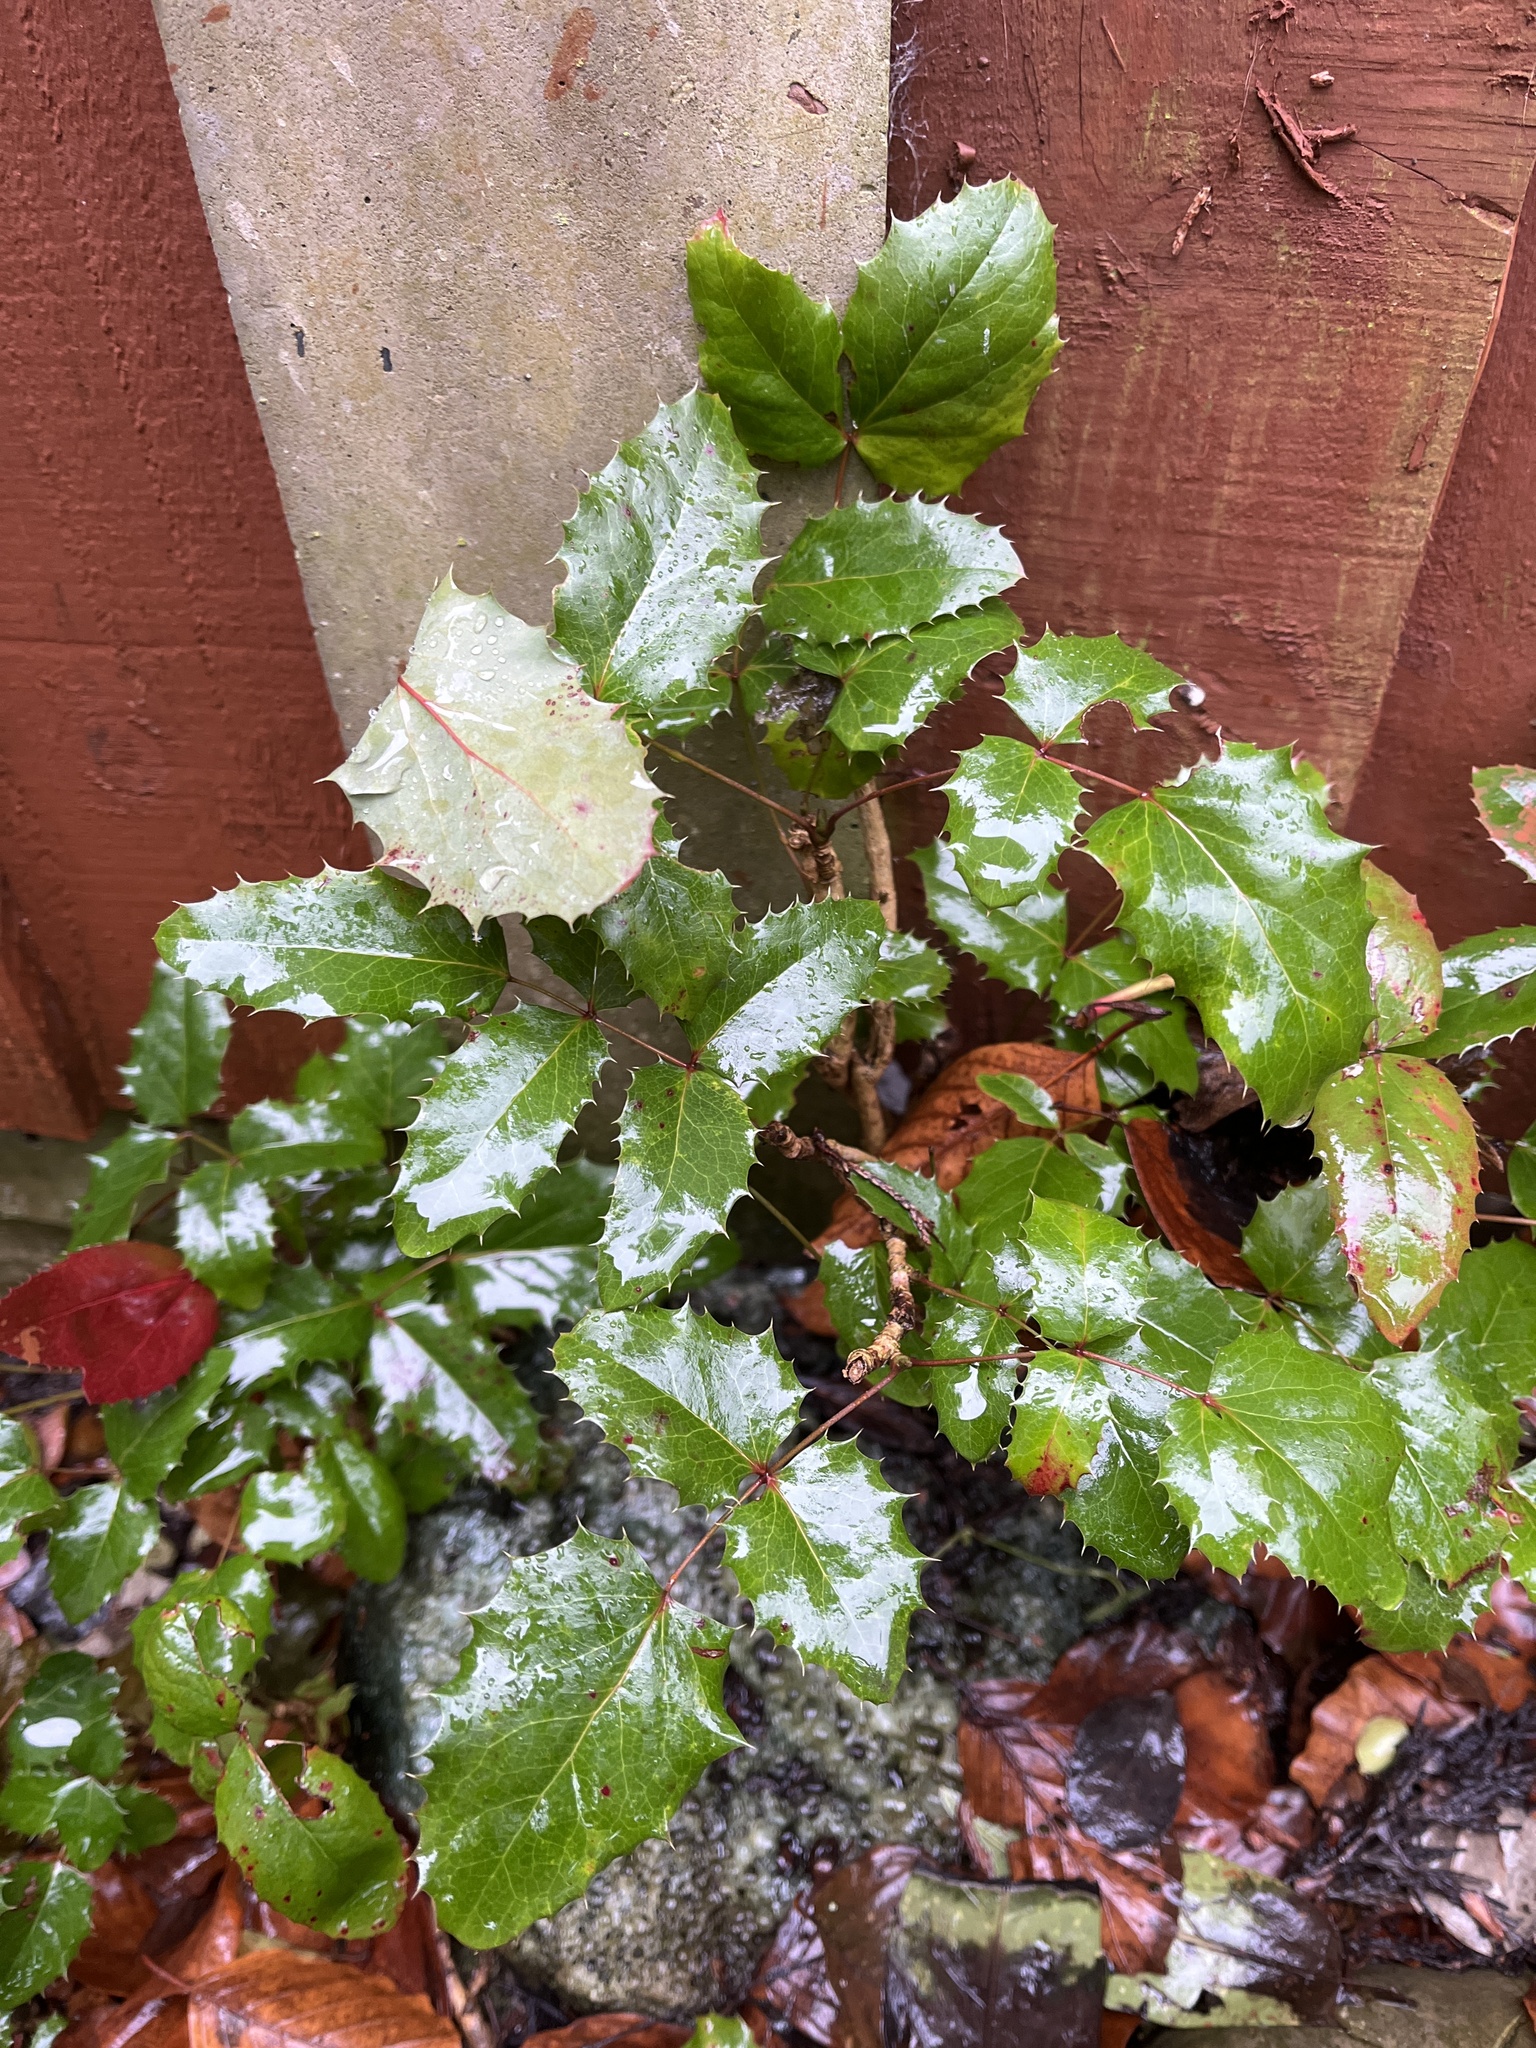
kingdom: Plantae
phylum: Tracheophyta
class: Magnoliopsida
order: Ranunculales
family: Berberidaceae
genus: Mahonia
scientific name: Mahonia aquifolium
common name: Oregon-grape
